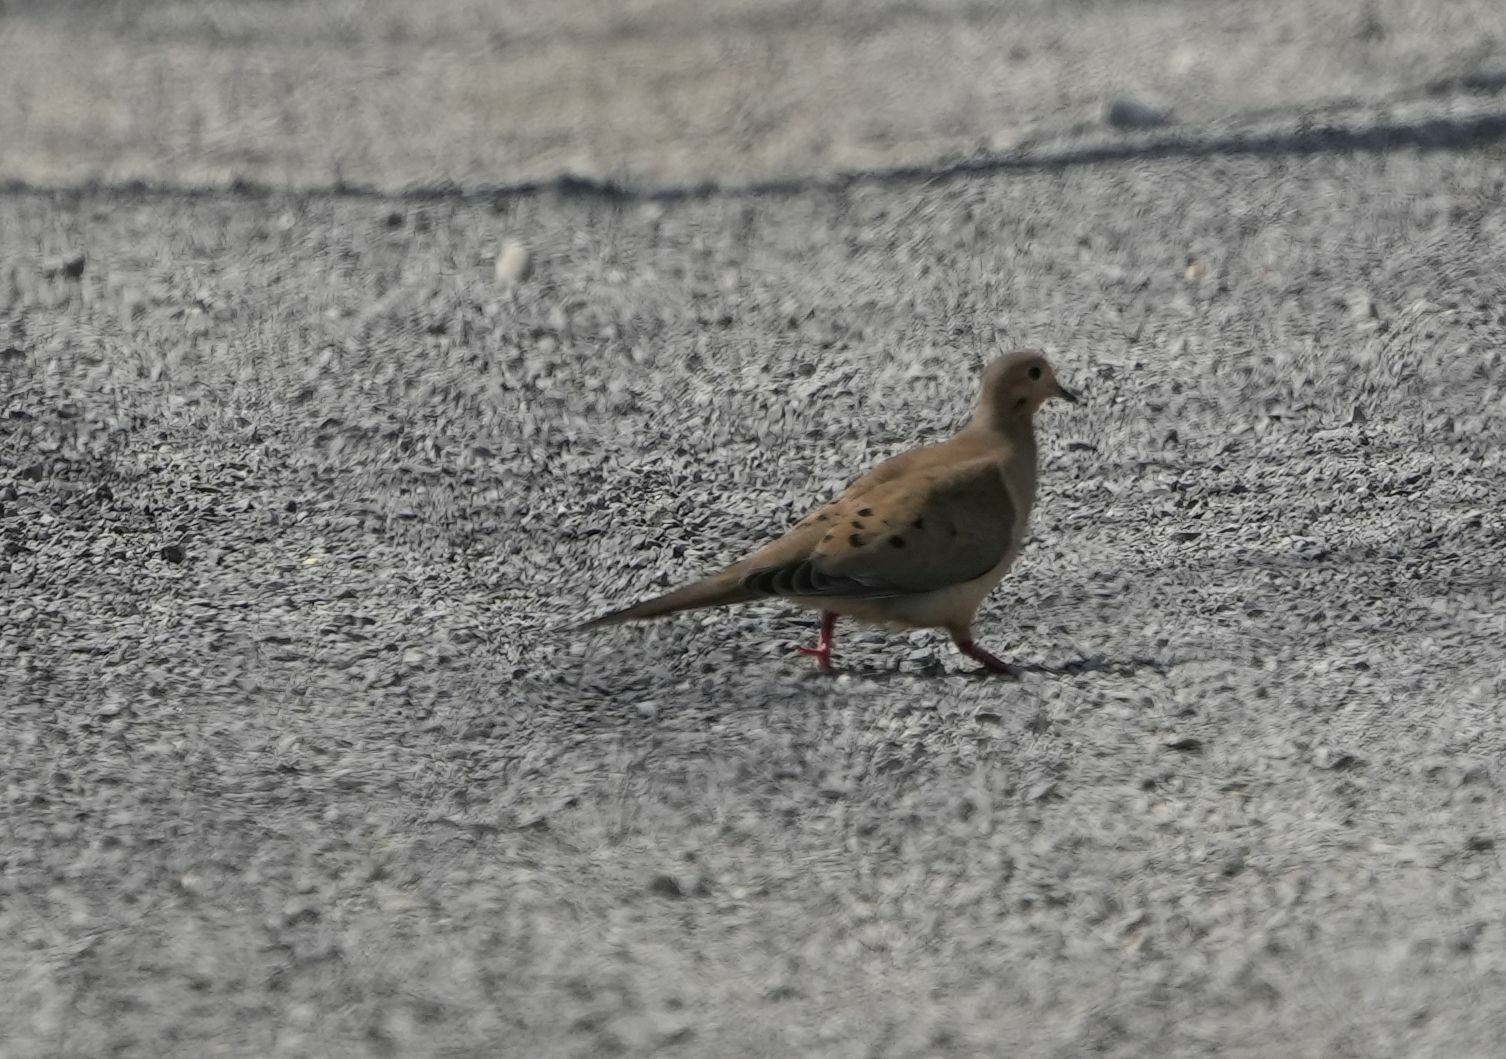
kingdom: Animalia
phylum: Chordata
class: Aves
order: Columbiformes
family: Columbidae
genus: Zenaida
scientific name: Zenaida macroura
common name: Mourning dove
